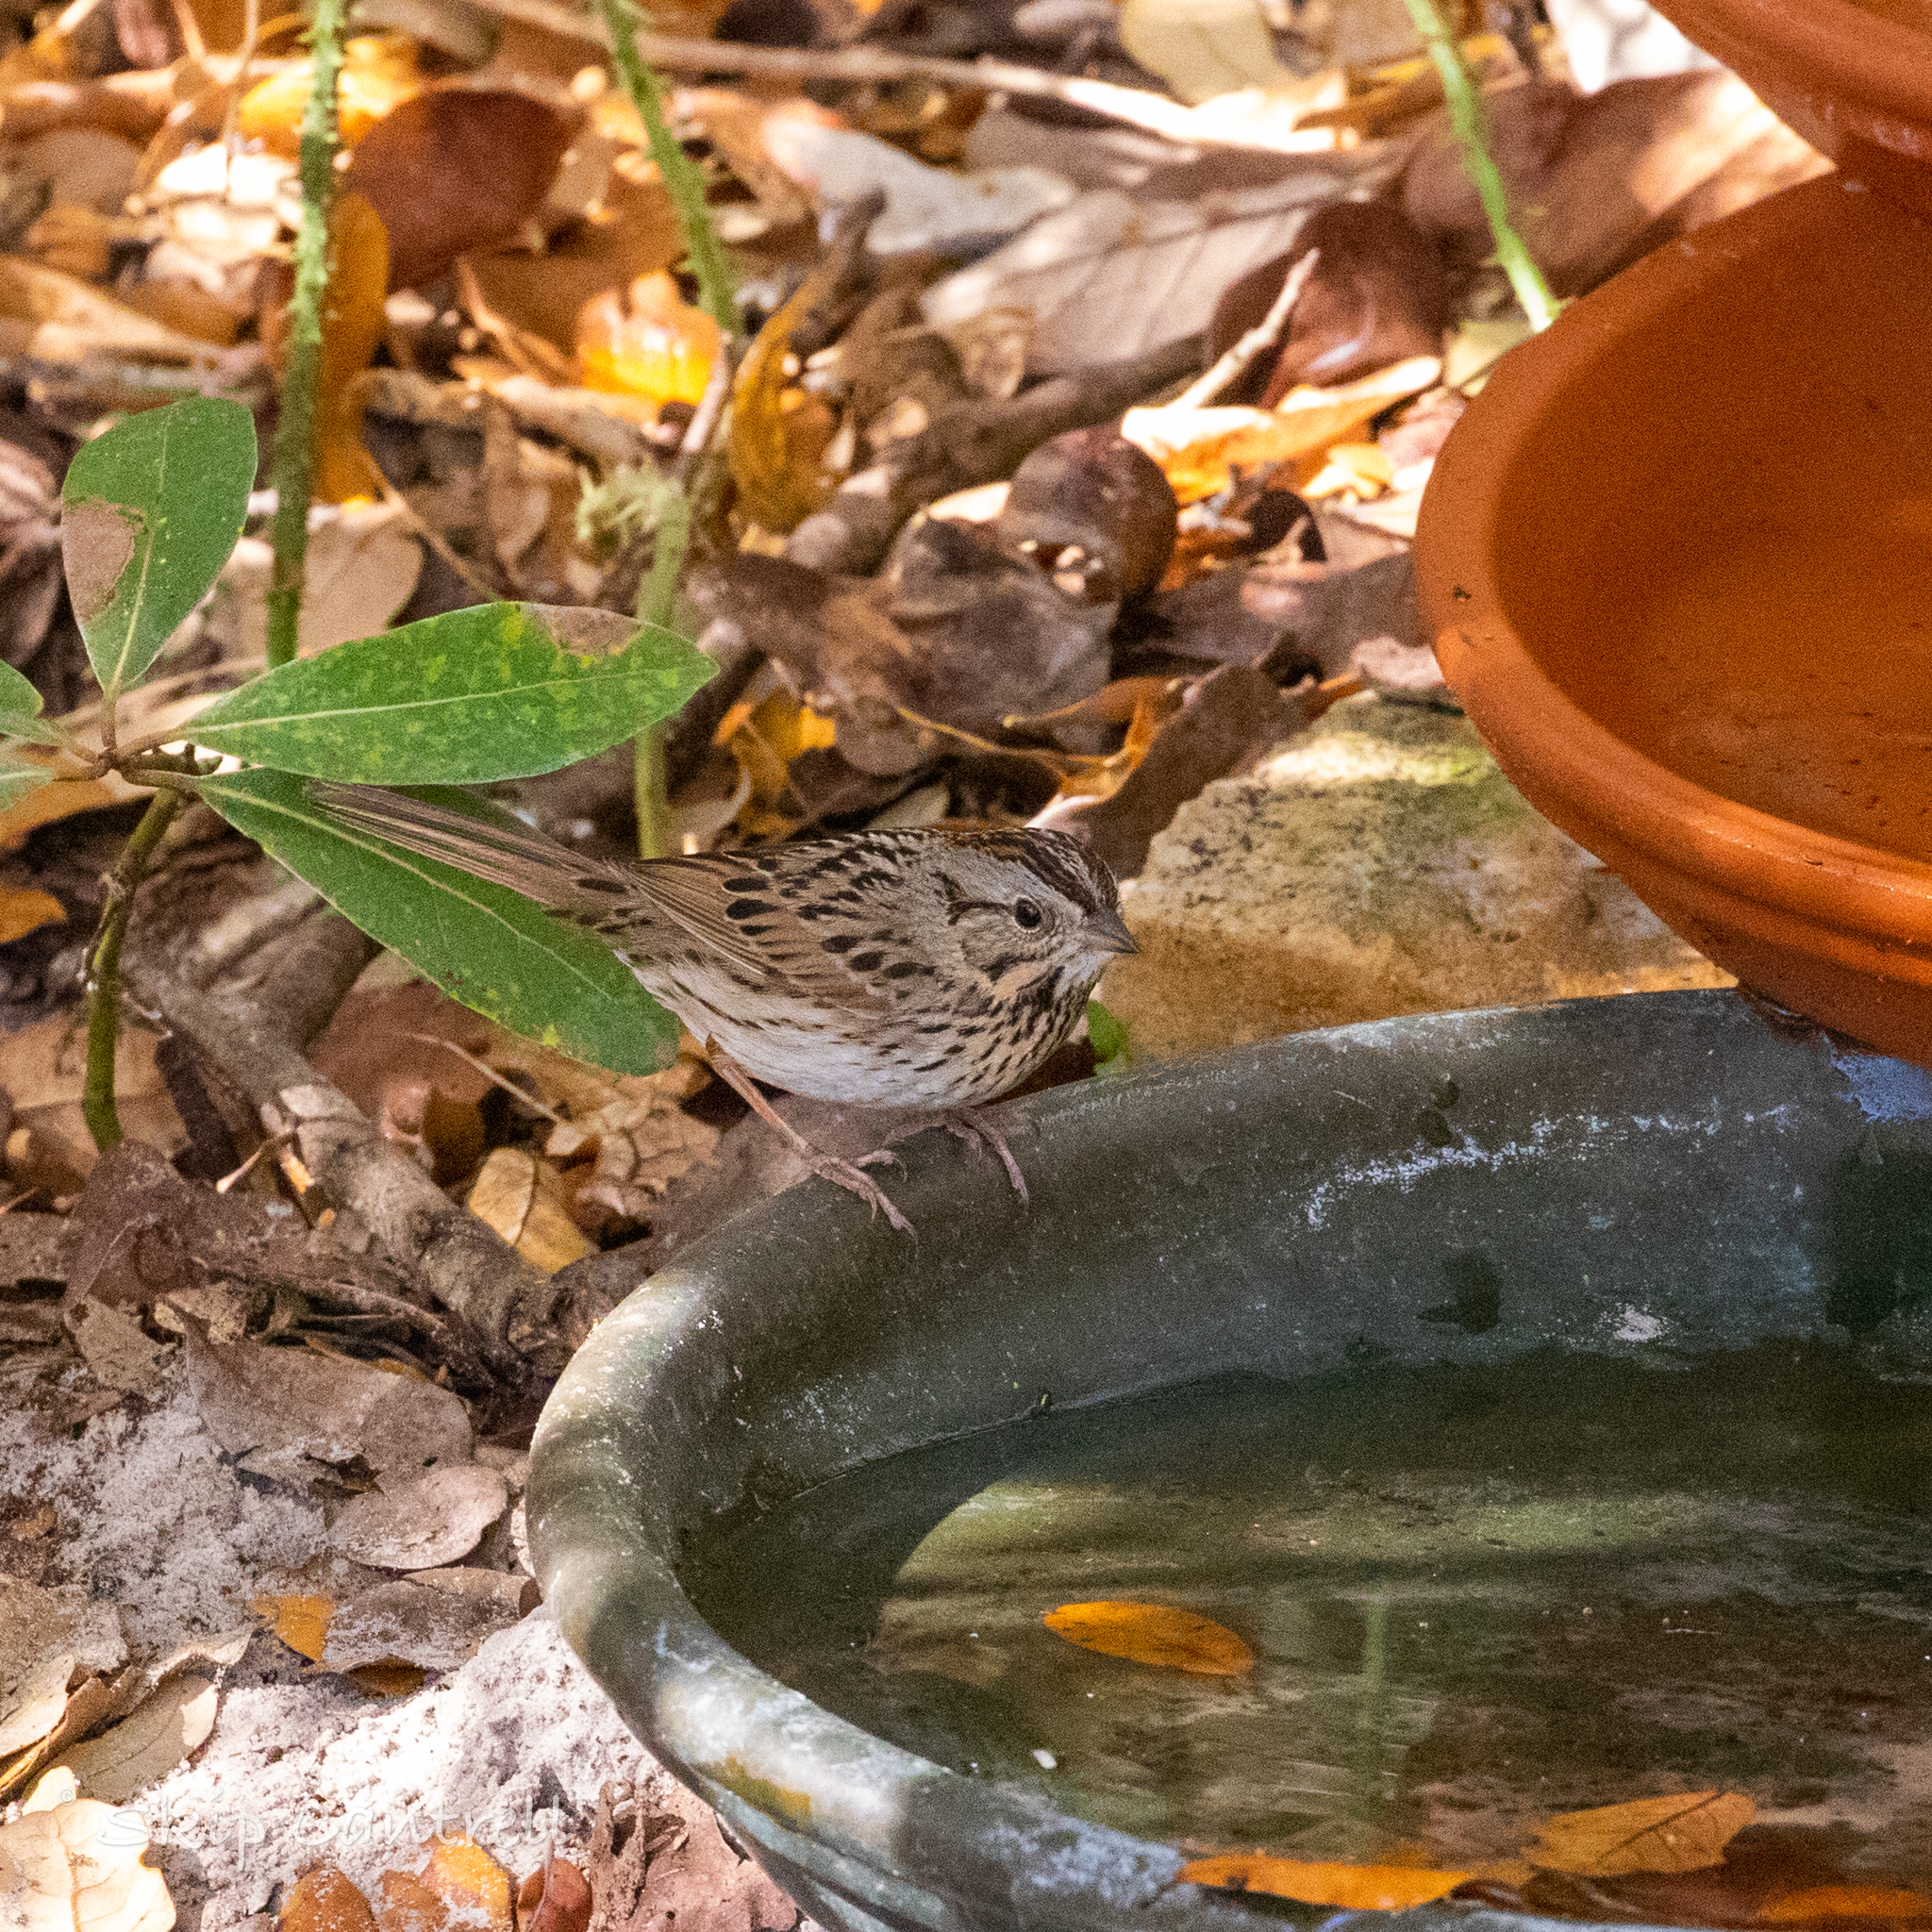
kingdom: Animalia
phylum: Chordata
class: Aves
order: Passeriformes
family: Passerellidae
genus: Melospiza
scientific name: Melospiza lincolnii
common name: Lincoln's sparrow
